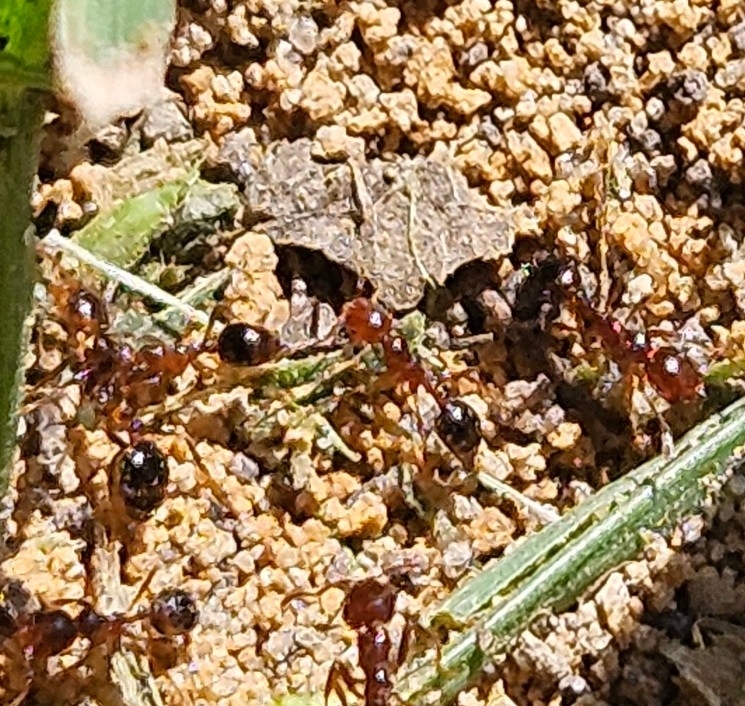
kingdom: Animalia
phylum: Arthropoda
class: Insecta
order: Hymenoptera
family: Formicidae
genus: Solenopsis
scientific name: Solenopsis invicta
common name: Red imported fire ant
